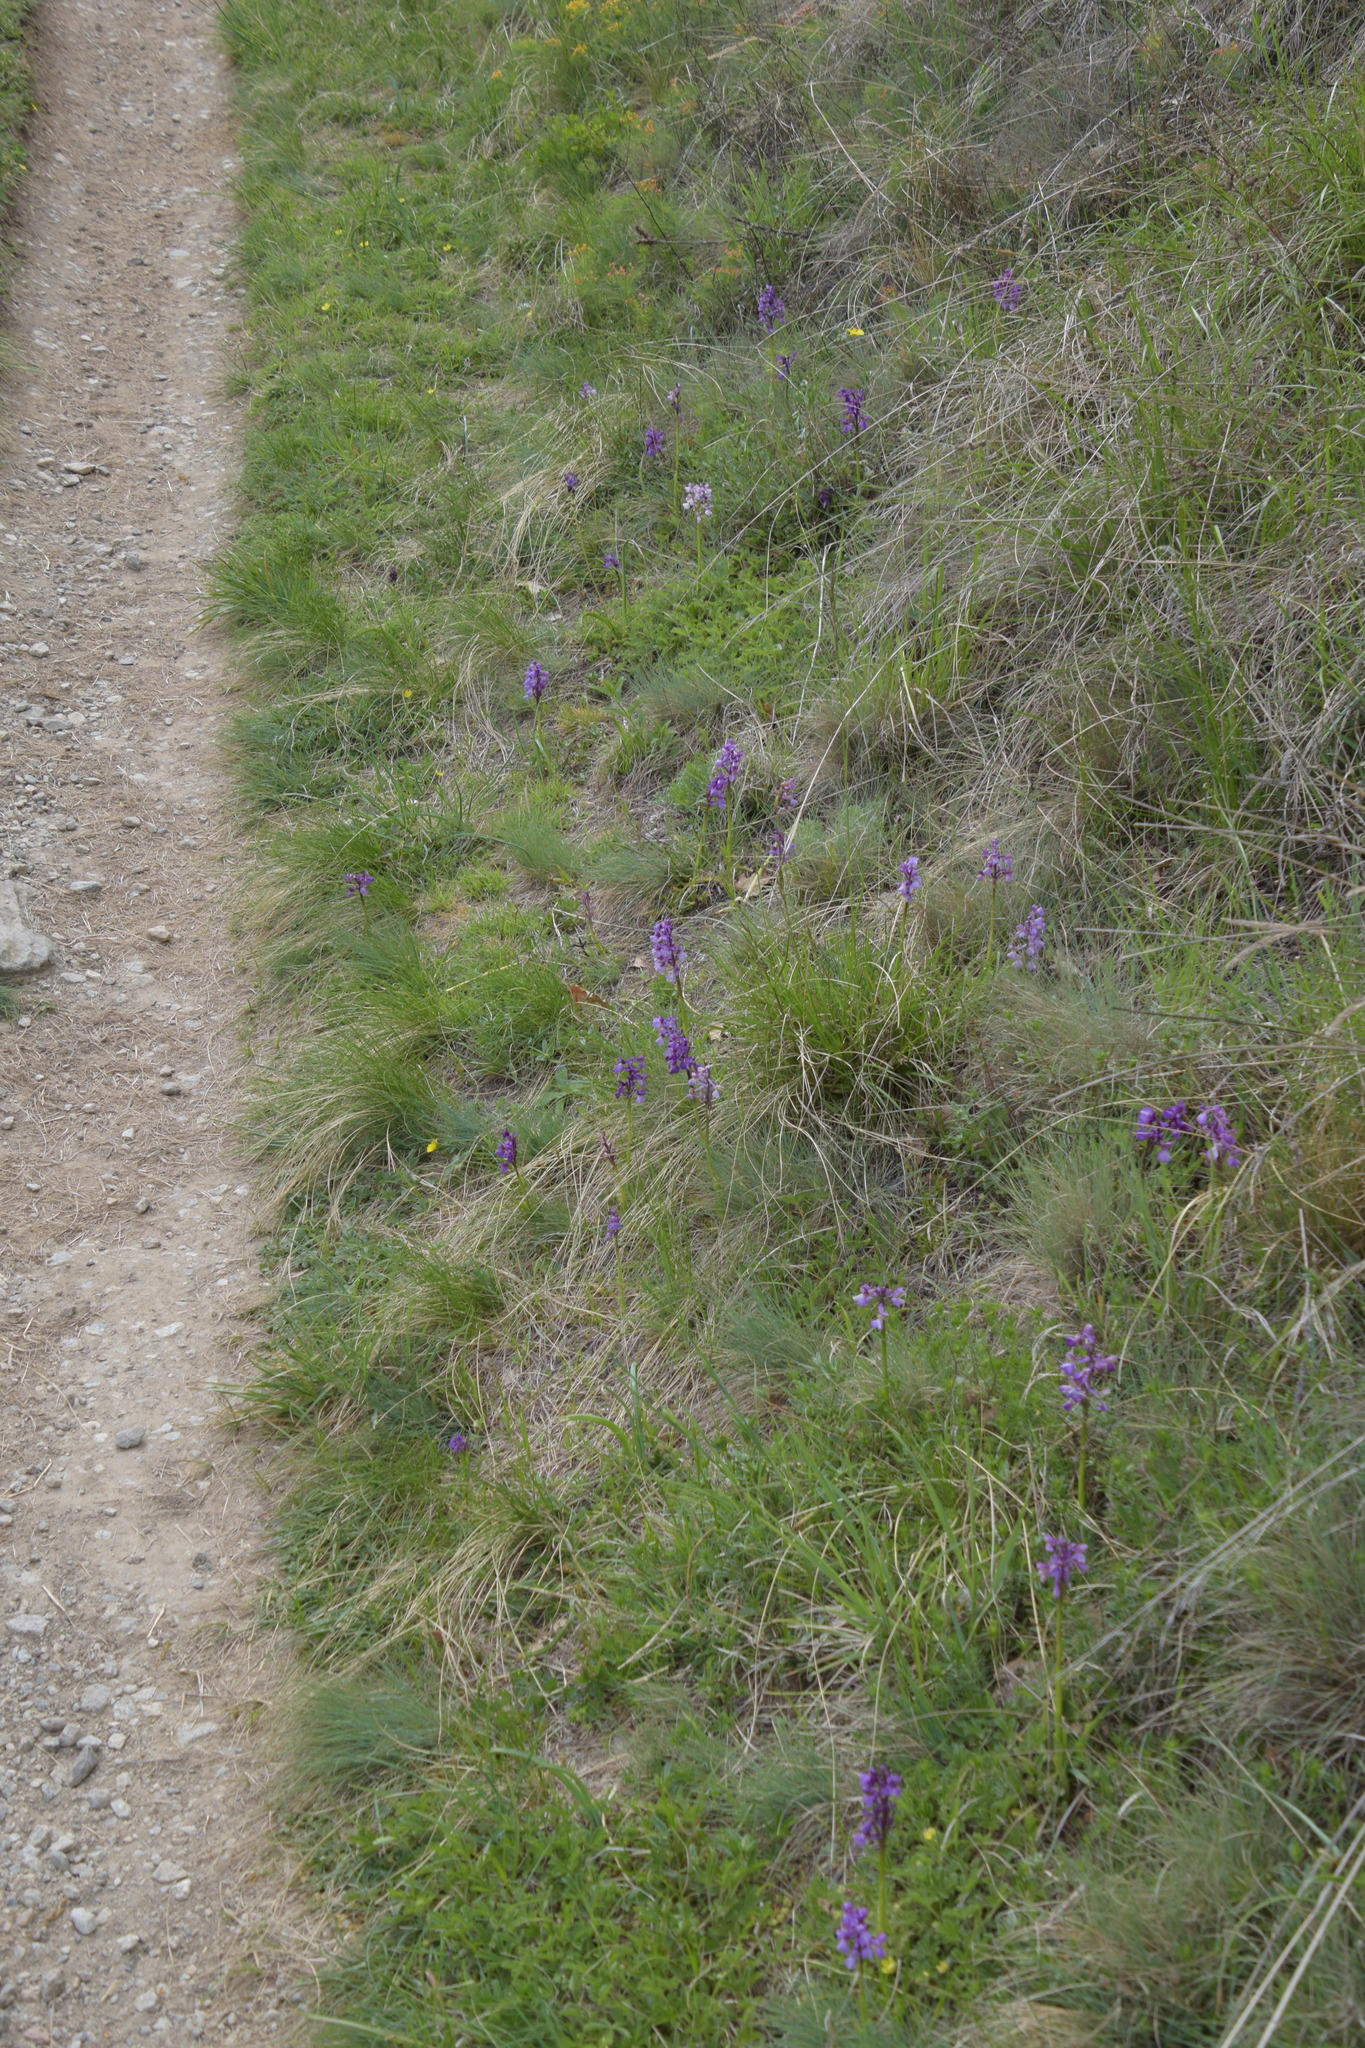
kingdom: Plantae
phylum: Tracheophyta
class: Liliopsida
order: Asparagales
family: Orchidaceae
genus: Anacamptis
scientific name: Anacamptis morio
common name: Green-winged orchid
